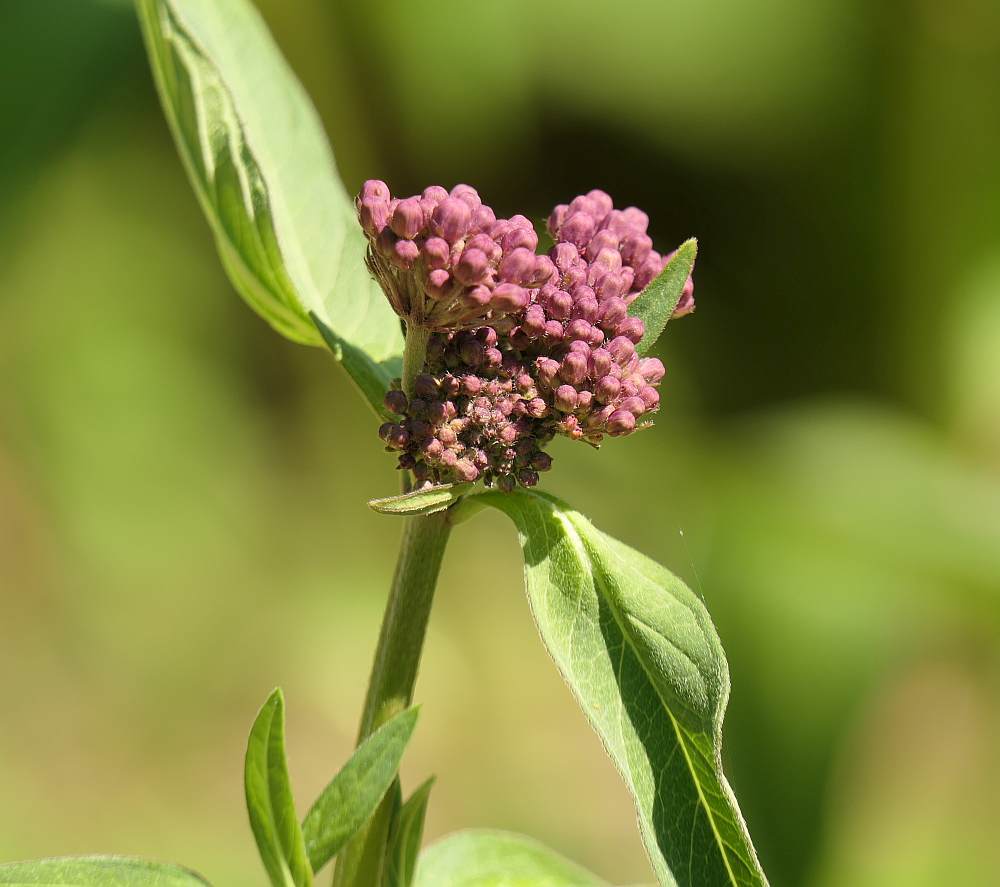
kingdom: Plantae
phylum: Tracheophyta
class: Magnoliopsida
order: Gentianales
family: Apocynaceae
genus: Asclepias
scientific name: Asclepias incarnata
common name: Swamp milkweed
